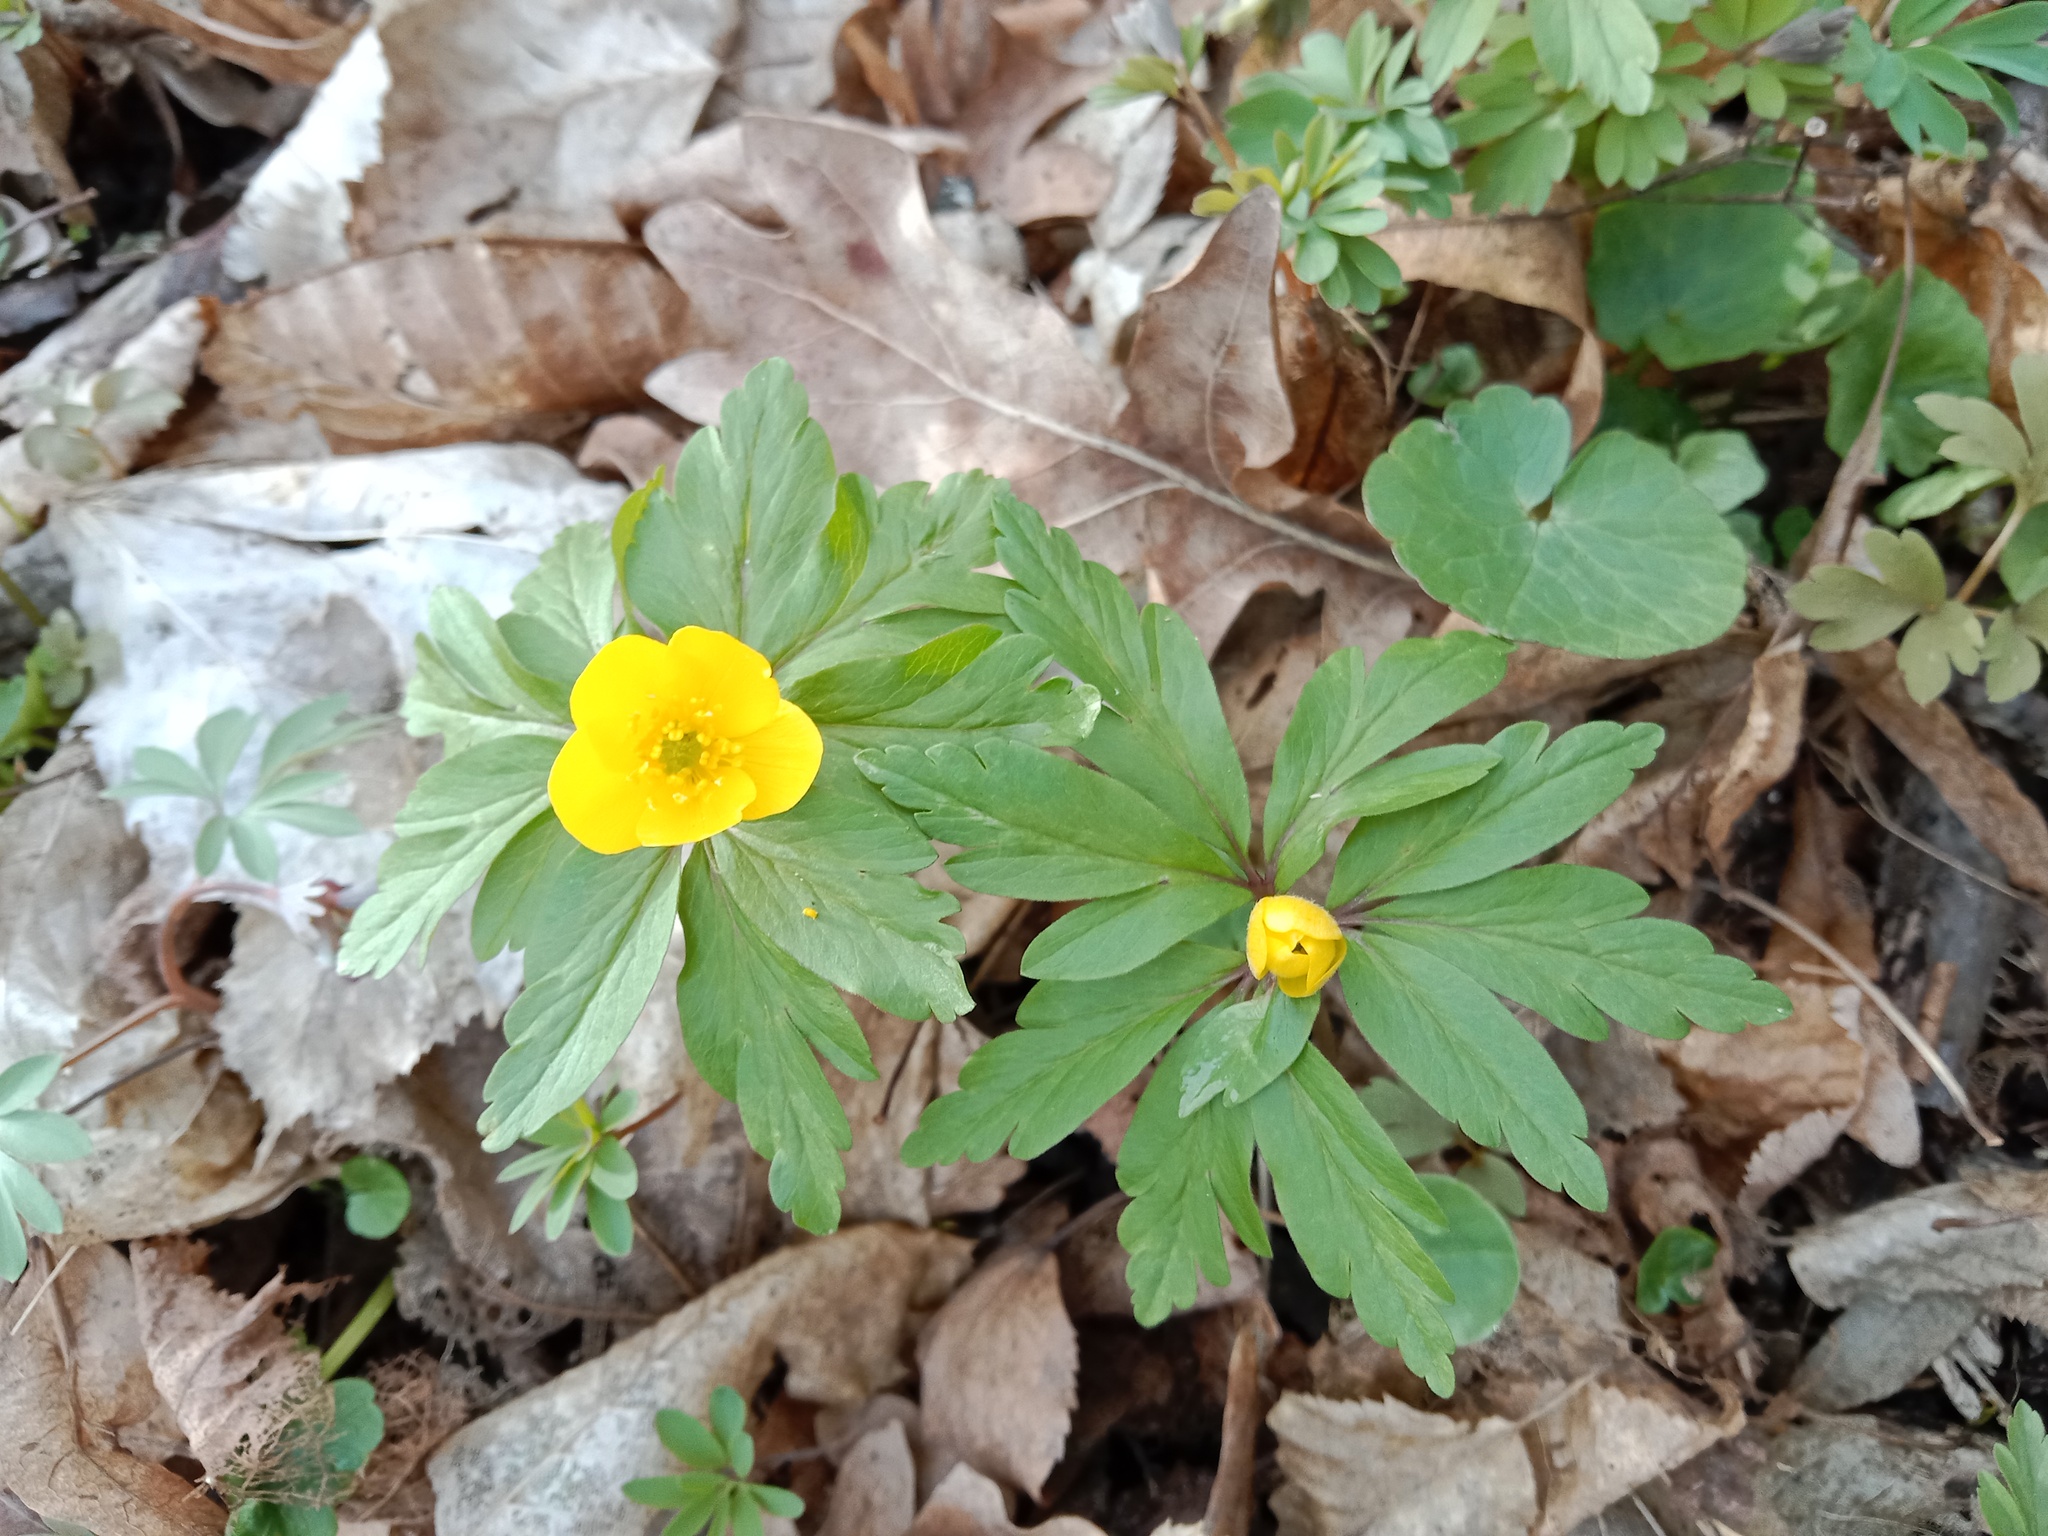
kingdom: Plantae
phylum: Tracheophyta
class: Magnoliopsida
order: Ranunculales
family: Ranunculaceae
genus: Anemone
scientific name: Anemone ranunculoides
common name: Yellow anemone
